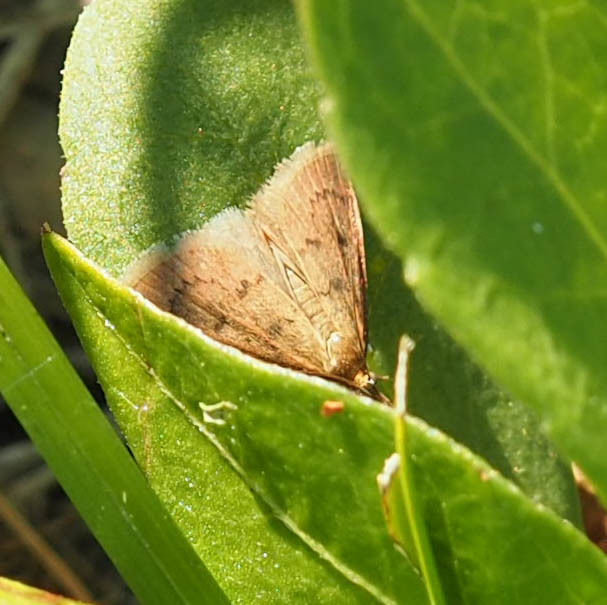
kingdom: Animalia
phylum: Arthropoda
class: Insecta
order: Lepidoptera
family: Crambidae
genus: Oenobotys
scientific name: Oenobotys vinotinctalis
